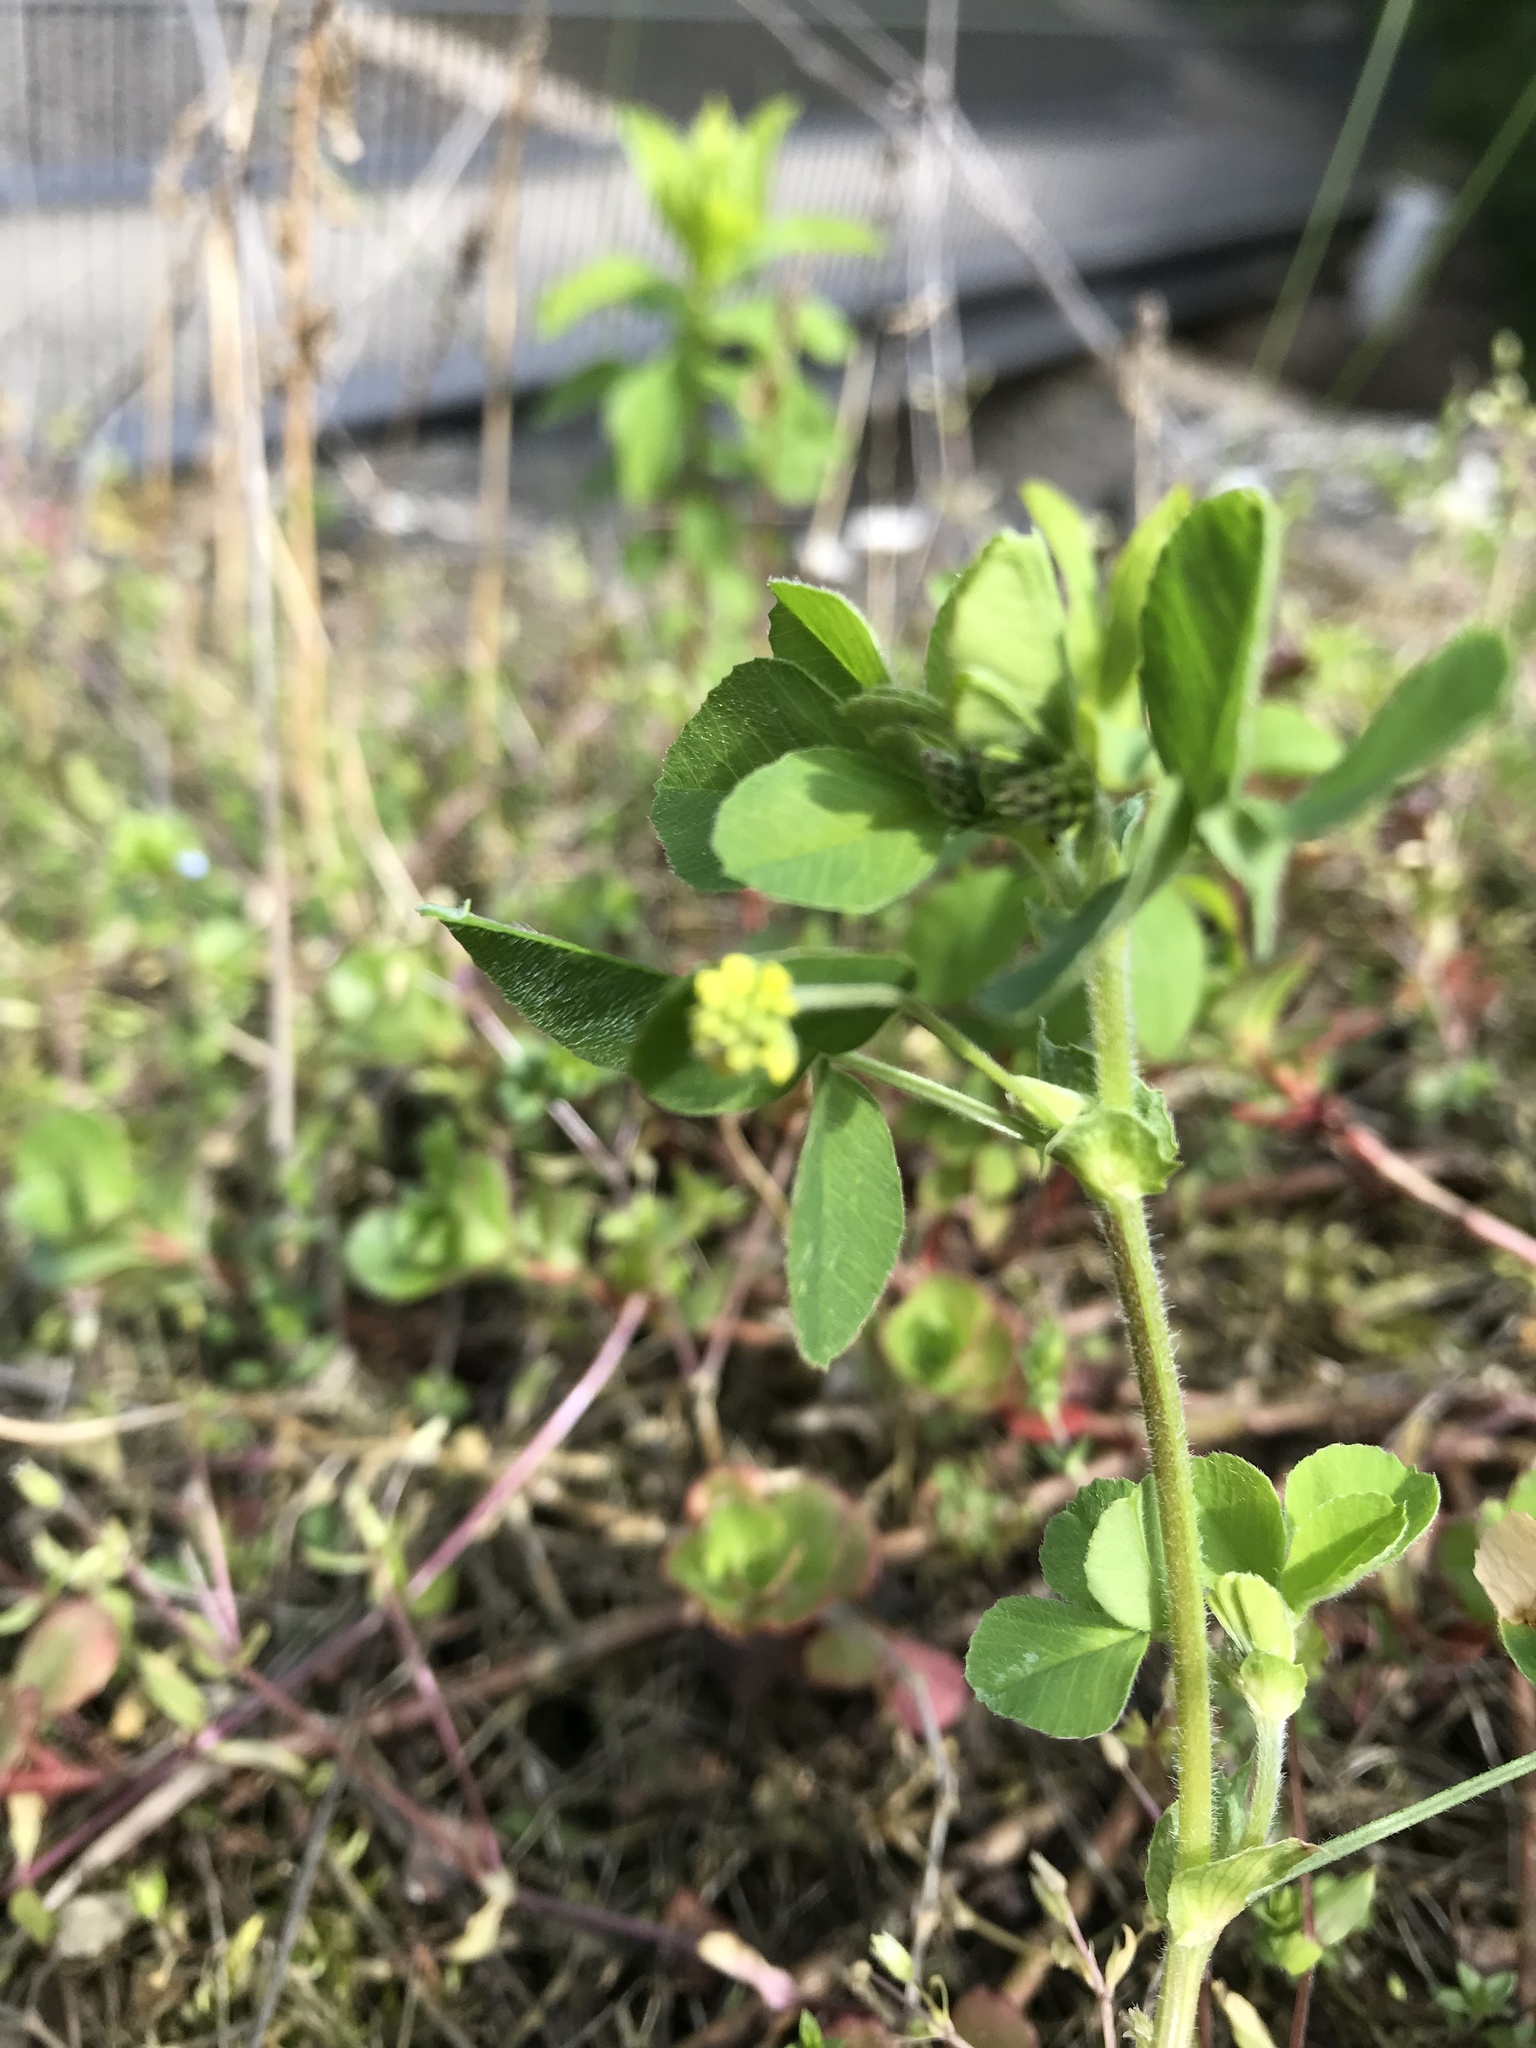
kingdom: Plantae
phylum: Tracheophyta
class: Magnoliopsida
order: Fabales
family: Fabaceae
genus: Medicago
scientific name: Medicago lupulina
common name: Black medick
